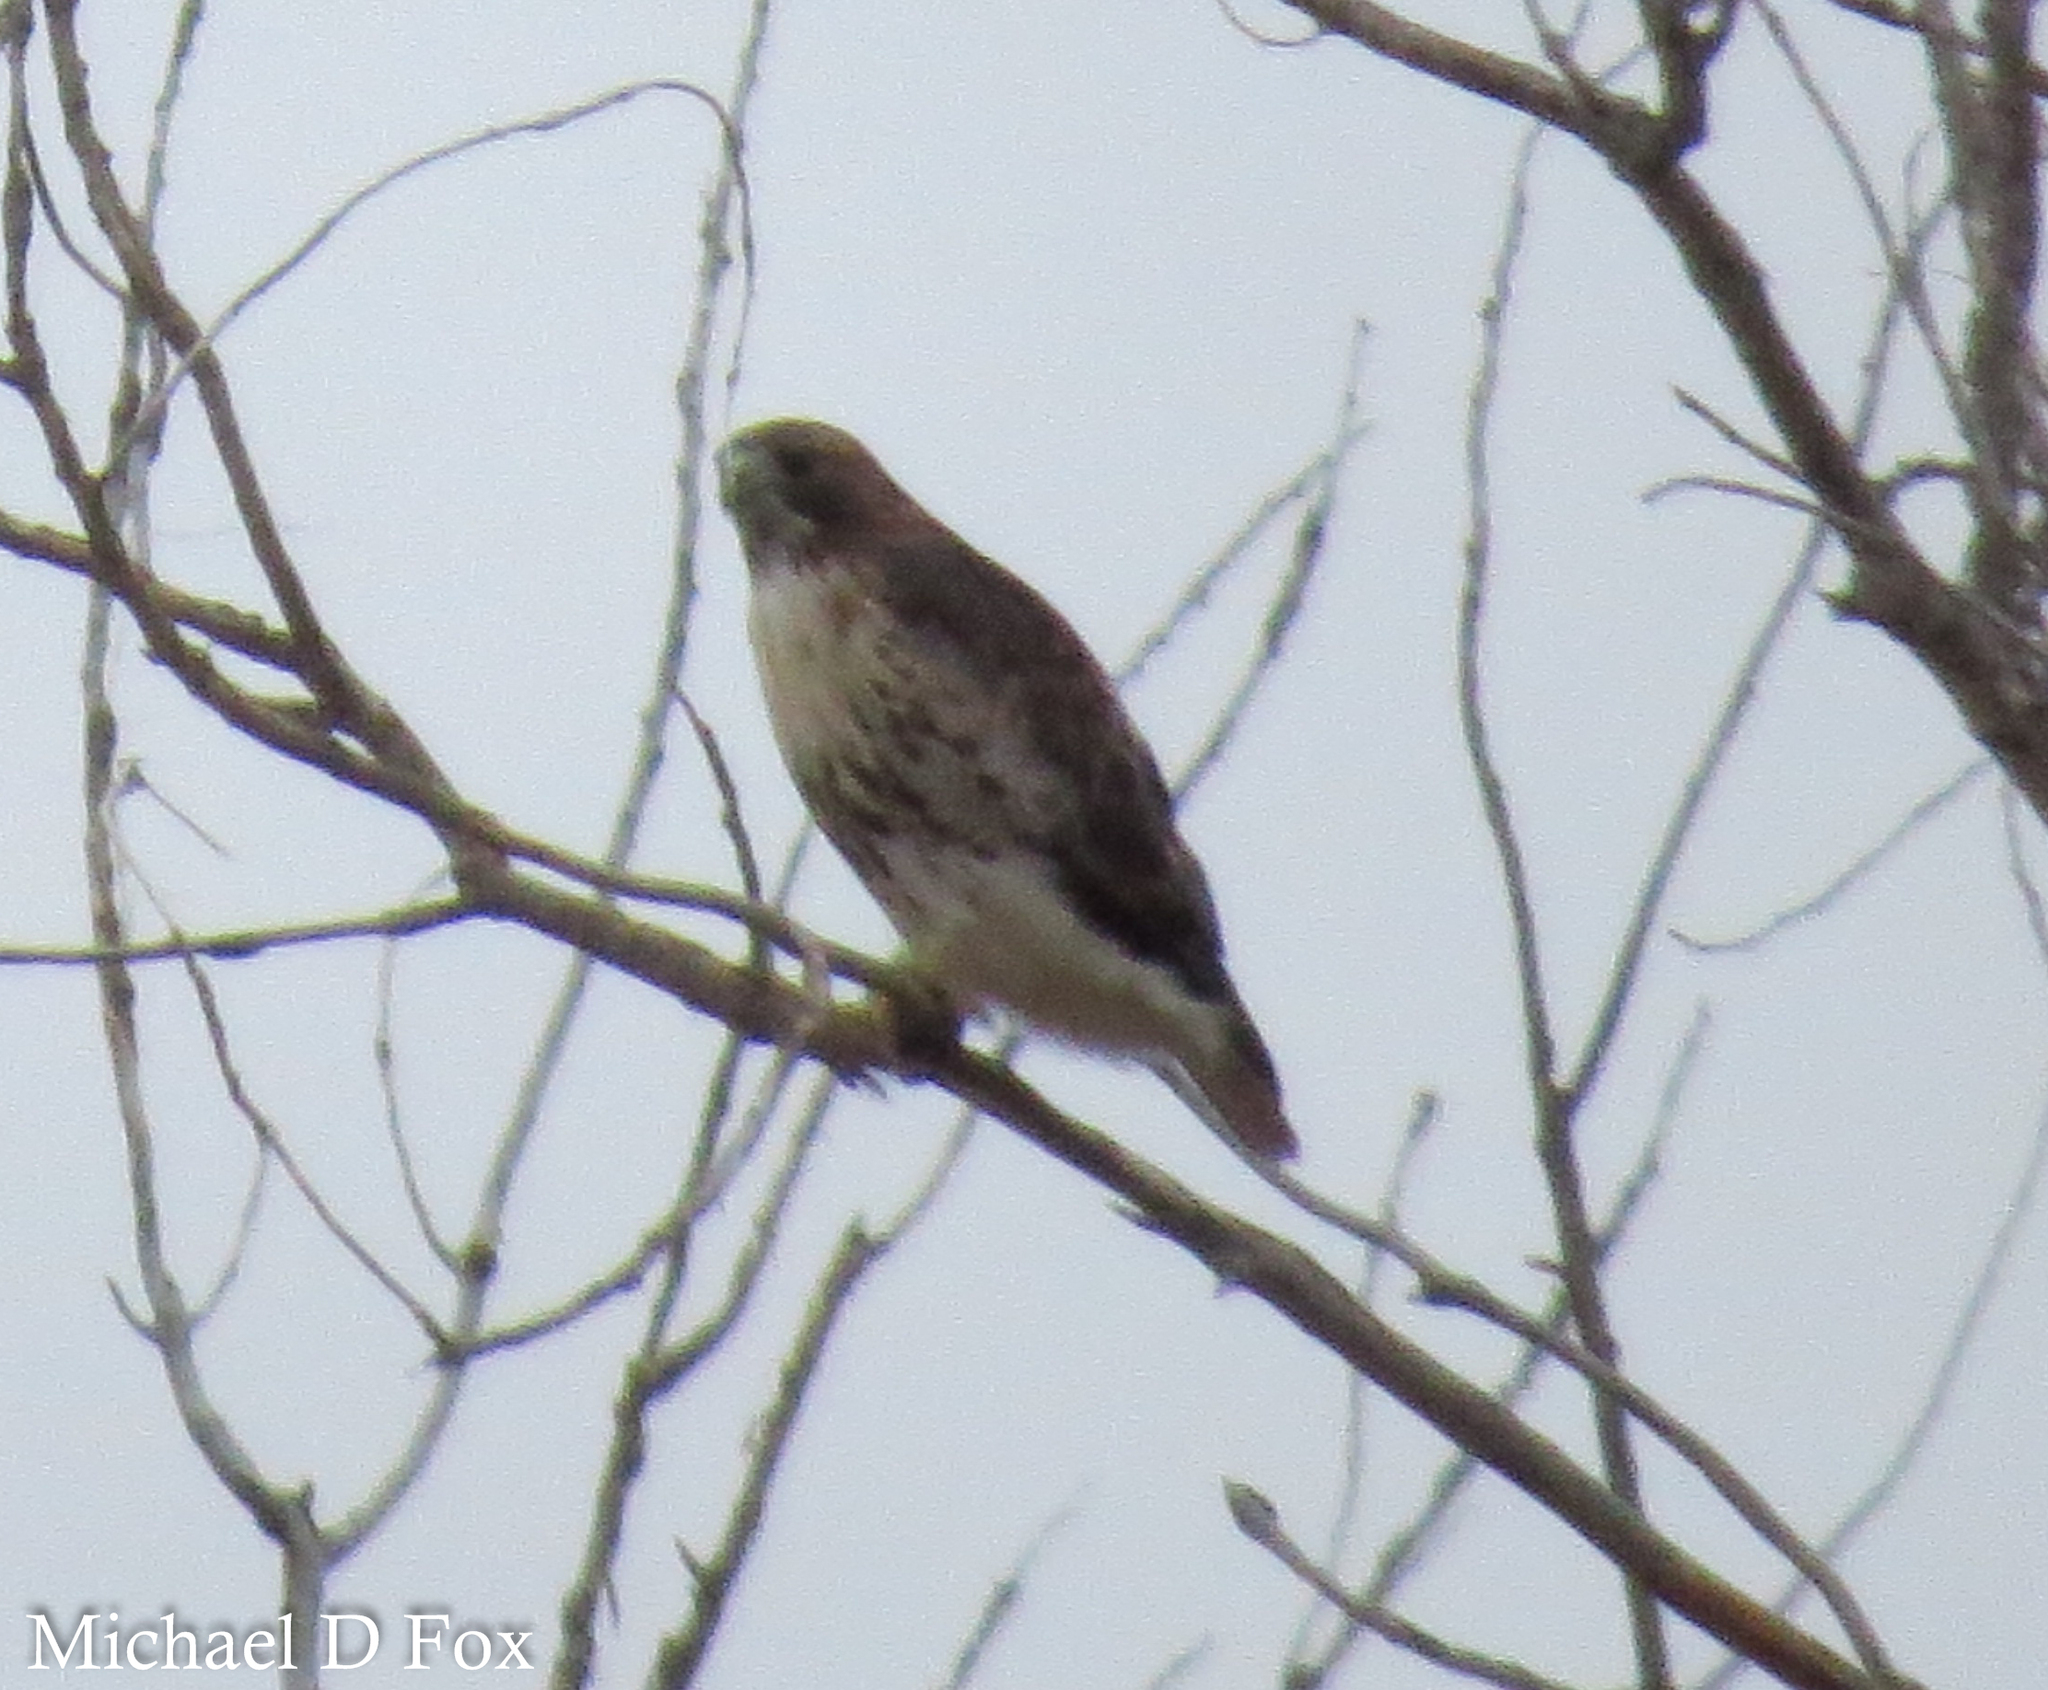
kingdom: Animalia
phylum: Chordata
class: Aves
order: Accipitriformes
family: Accipitridae
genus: Buteo
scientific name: Buteo jamaicensis
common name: Red-tailed hawk
